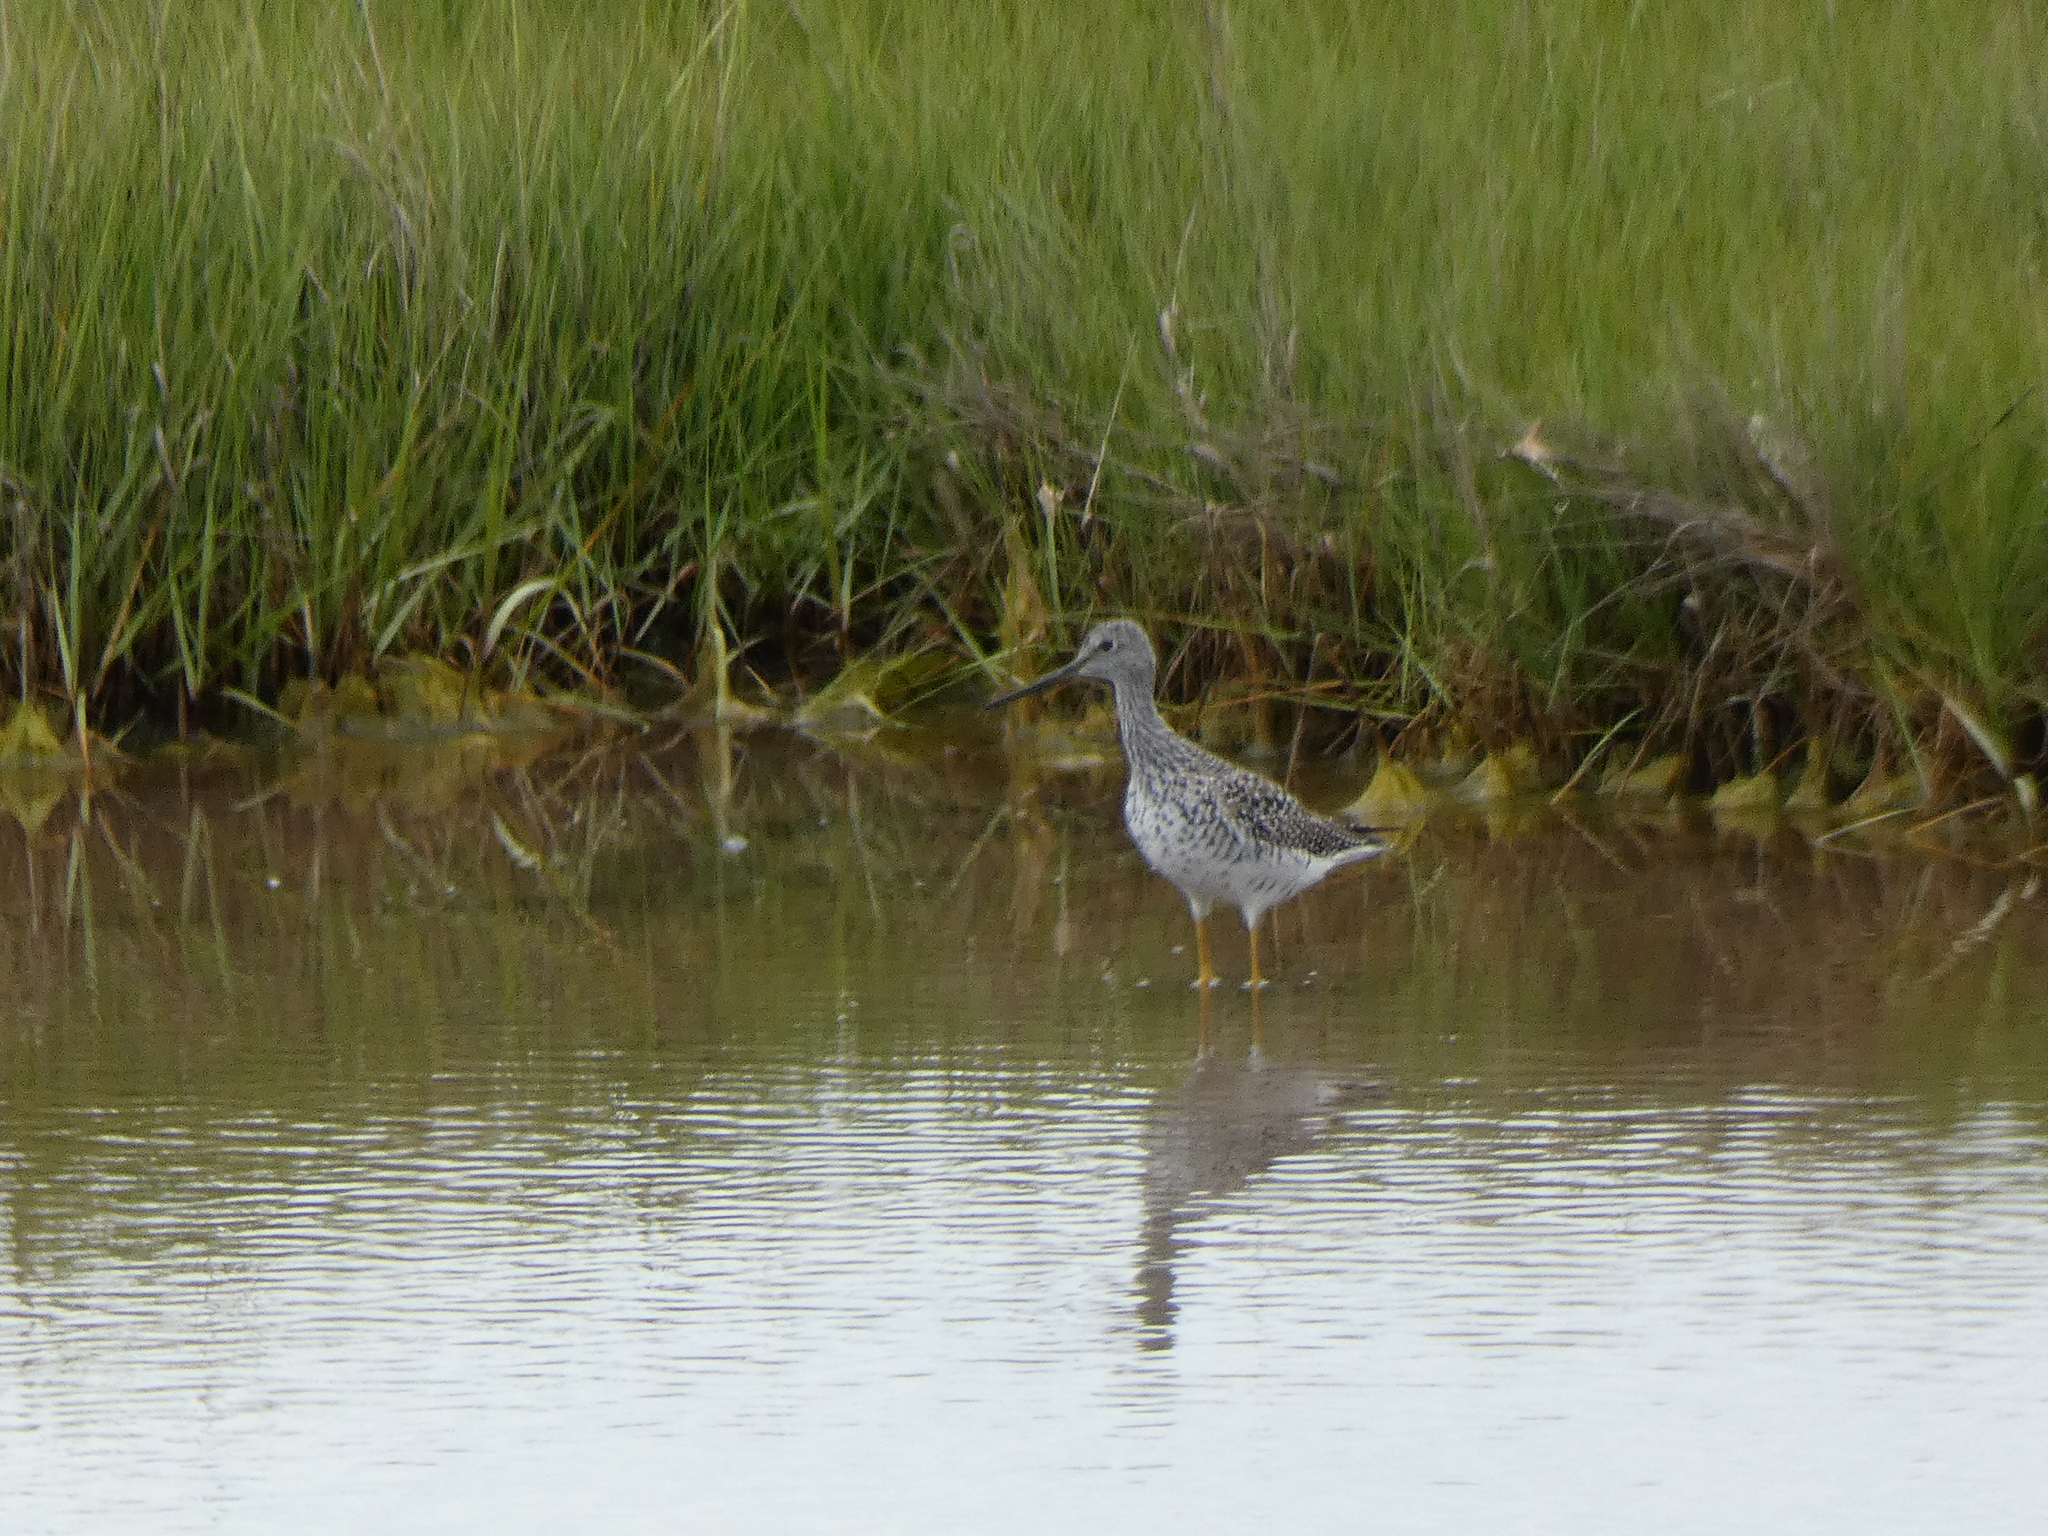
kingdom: Animalia
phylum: Chordata
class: Aves
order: Charadriiformes
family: Scolopacidae
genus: Tringa
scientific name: Tringa melanoleuca
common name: Greater yellowlegs
